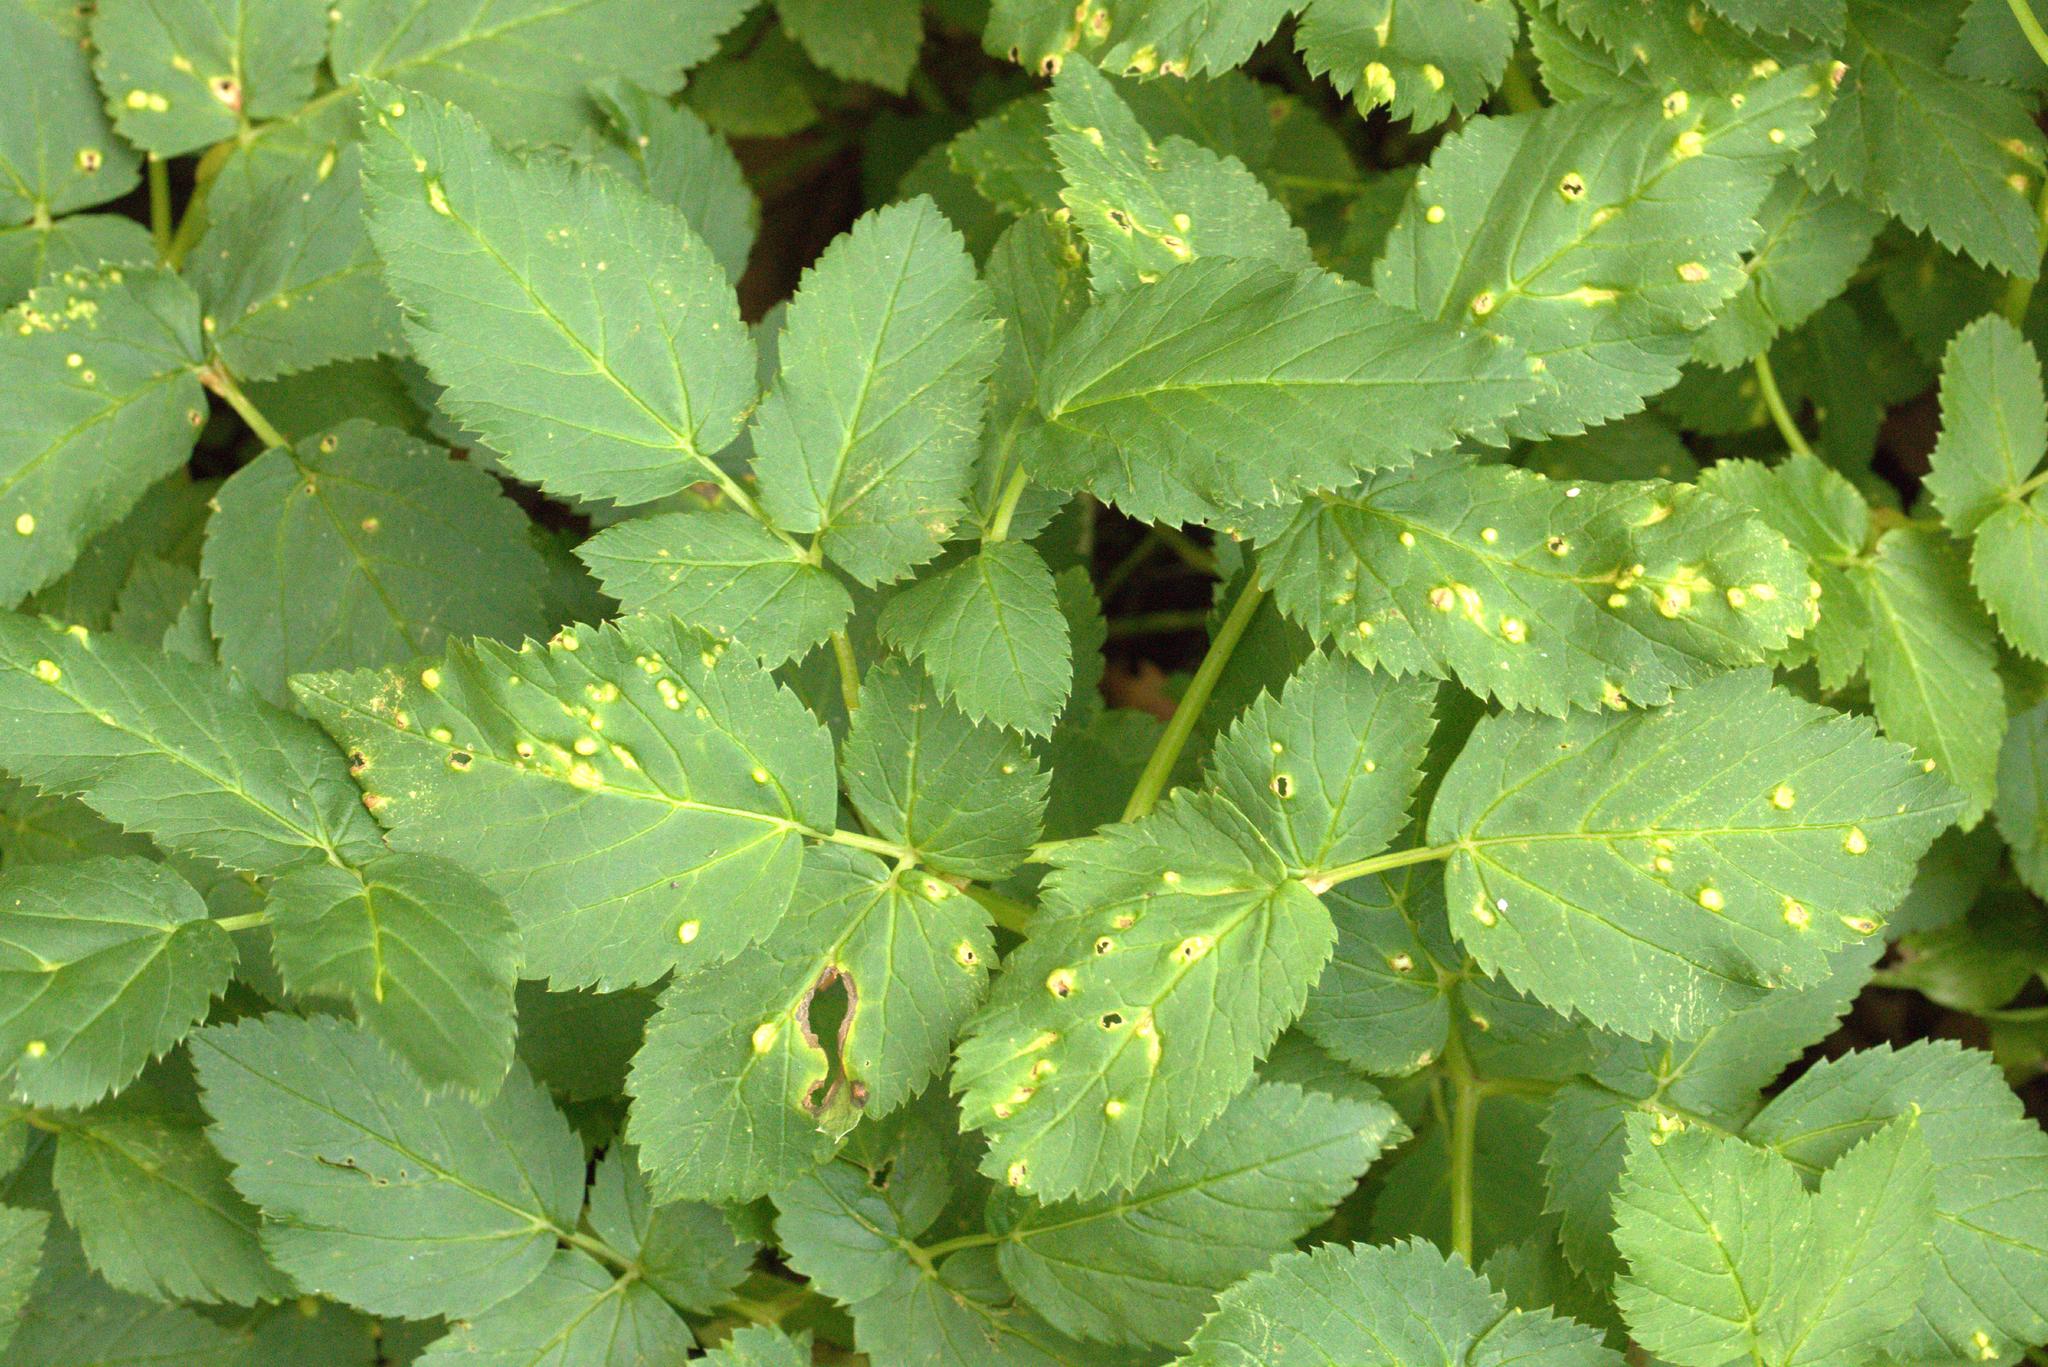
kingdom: Fungi
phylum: Basidiomycota
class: Pucciniomycetes
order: Pucciniales
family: Pucciniaceae
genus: Puccinia
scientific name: Puccinia smyrnii
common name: Alexanders rust
